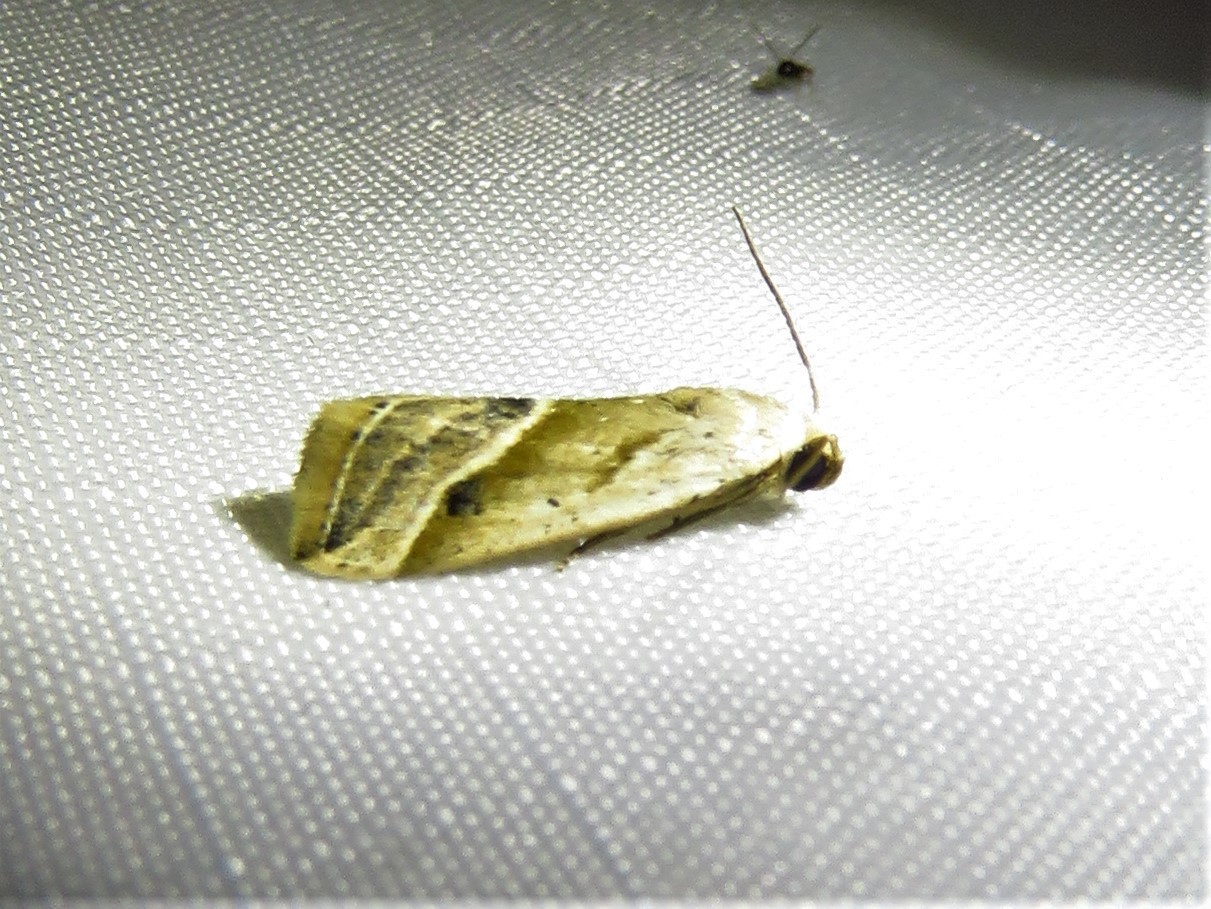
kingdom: Animalia
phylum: Arthropoda
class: Insecta
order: Lepidoptera
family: Noctuidae
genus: Micrathetis
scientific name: Micrathetis tecnion
